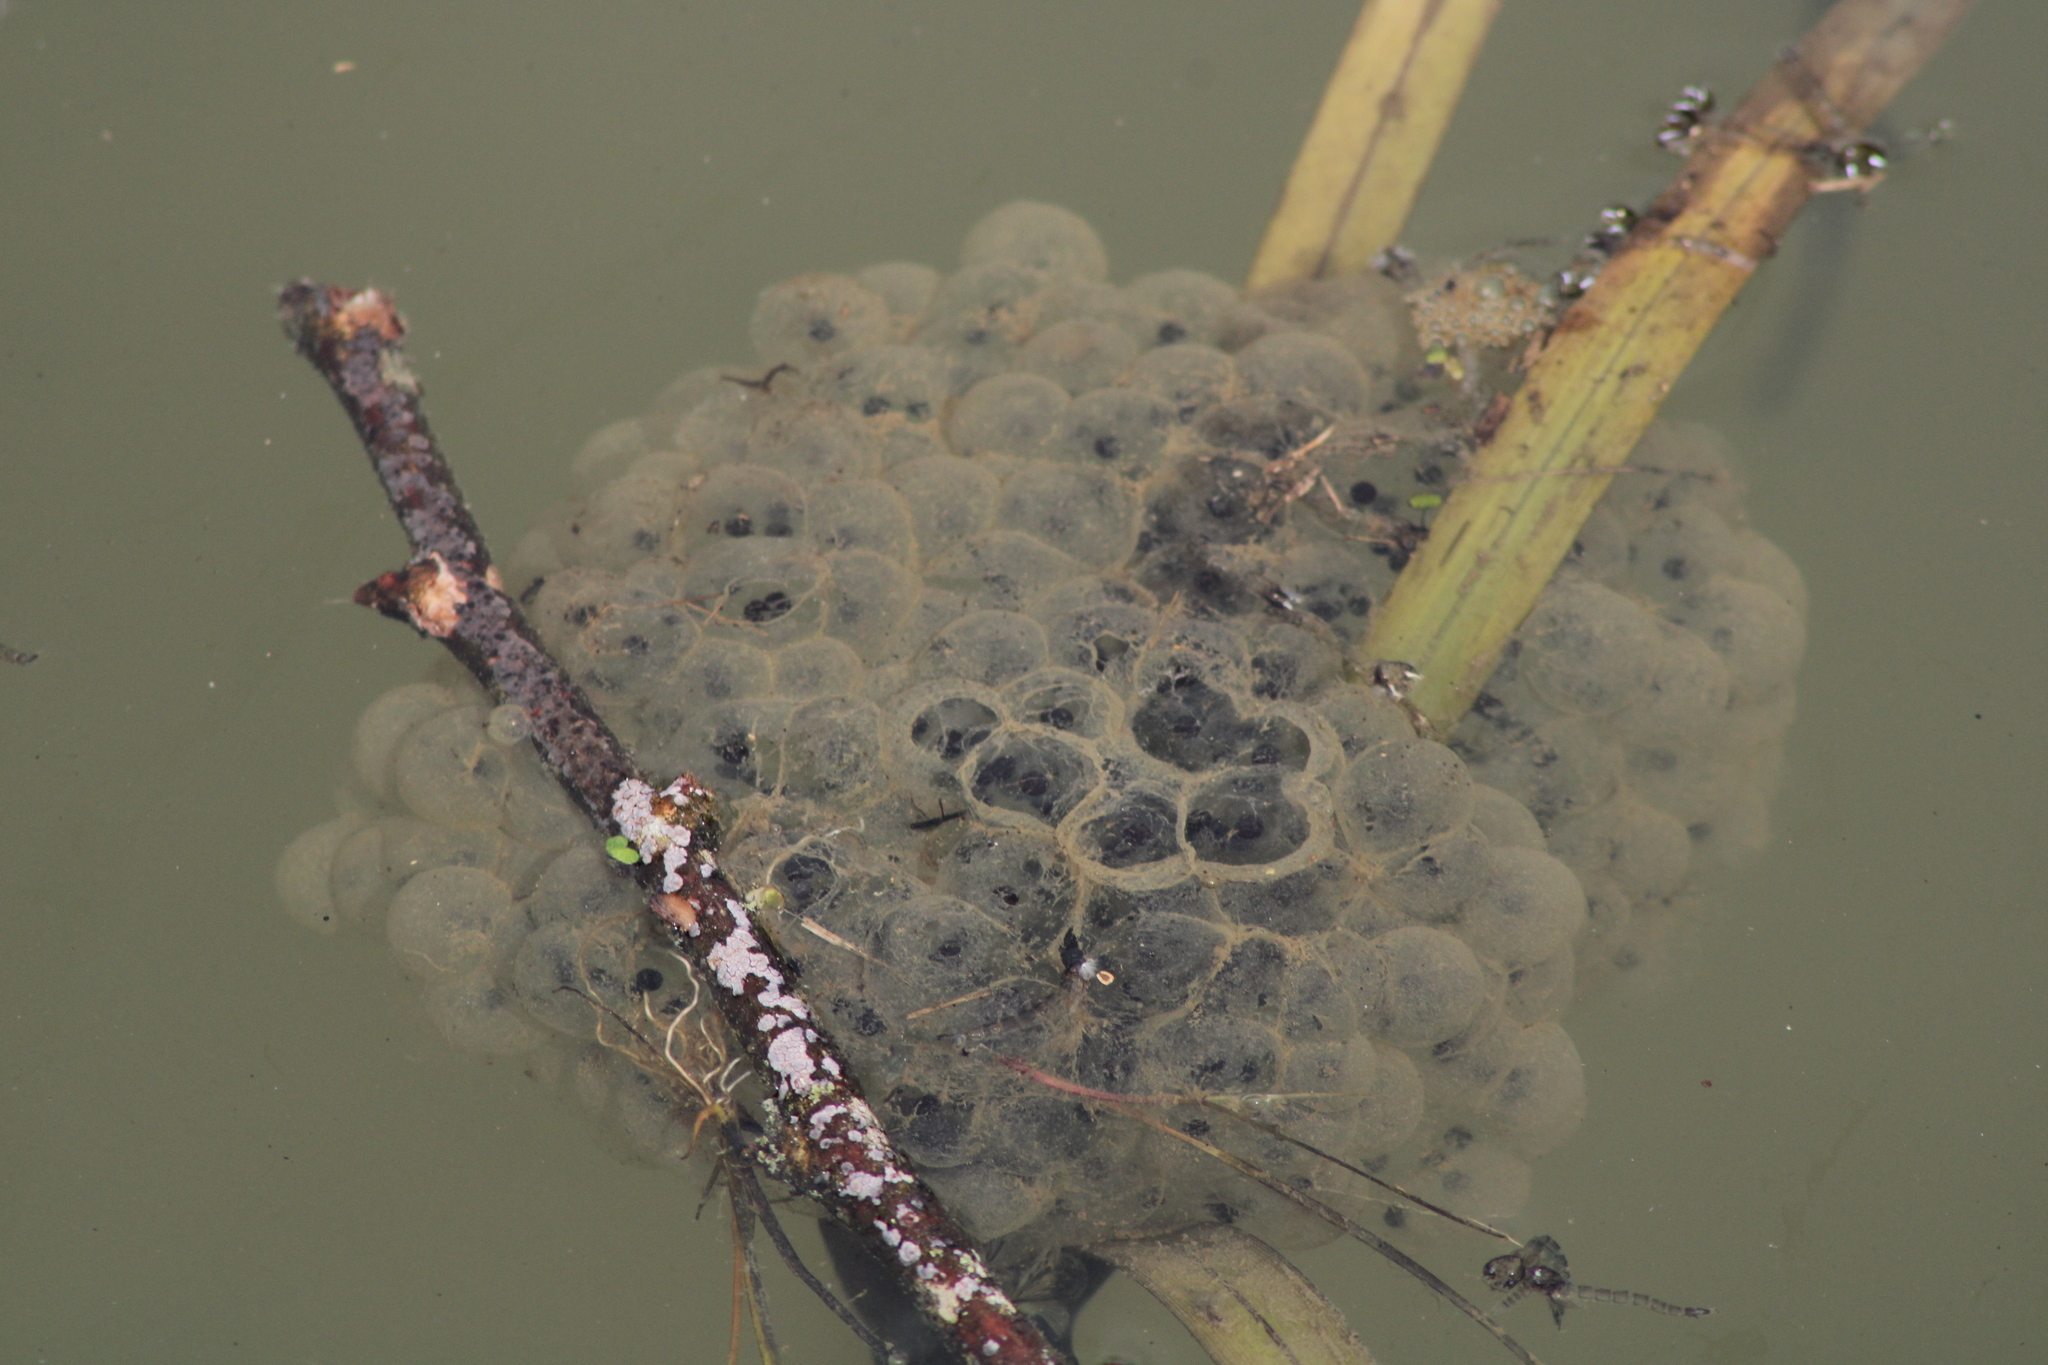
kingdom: Animalia
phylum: Chordata
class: Amphibia
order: Anura
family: Ranidae
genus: Rana
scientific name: Rana dalmatina
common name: Agile frog
